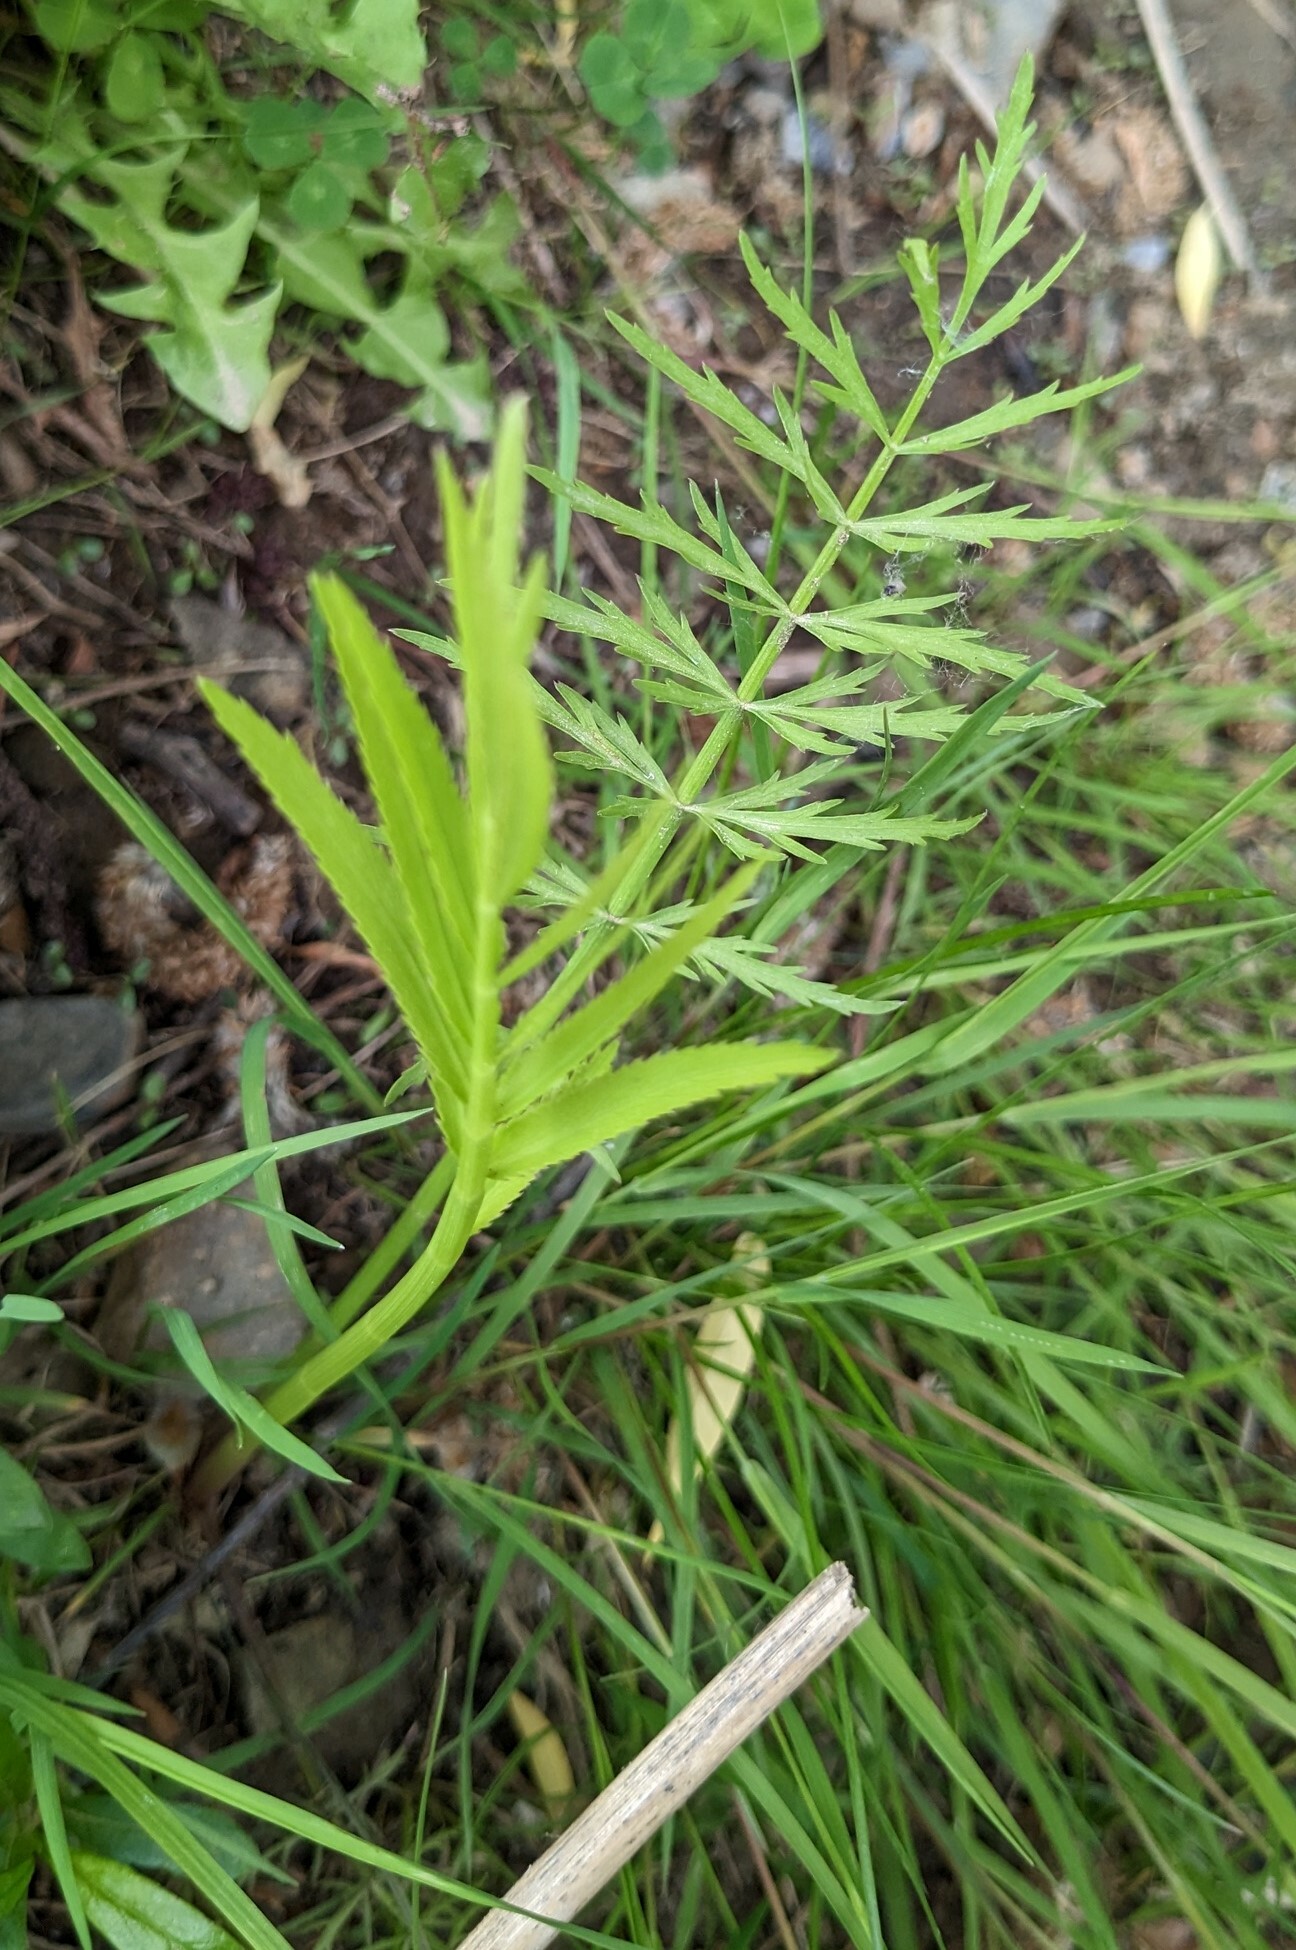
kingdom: Plantae
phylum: Tracheophyta
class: Magnoliopsida
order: Apiales
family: Apiaceae
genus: Sium
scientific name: Sium suave
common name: Hemlock water-parsnip
